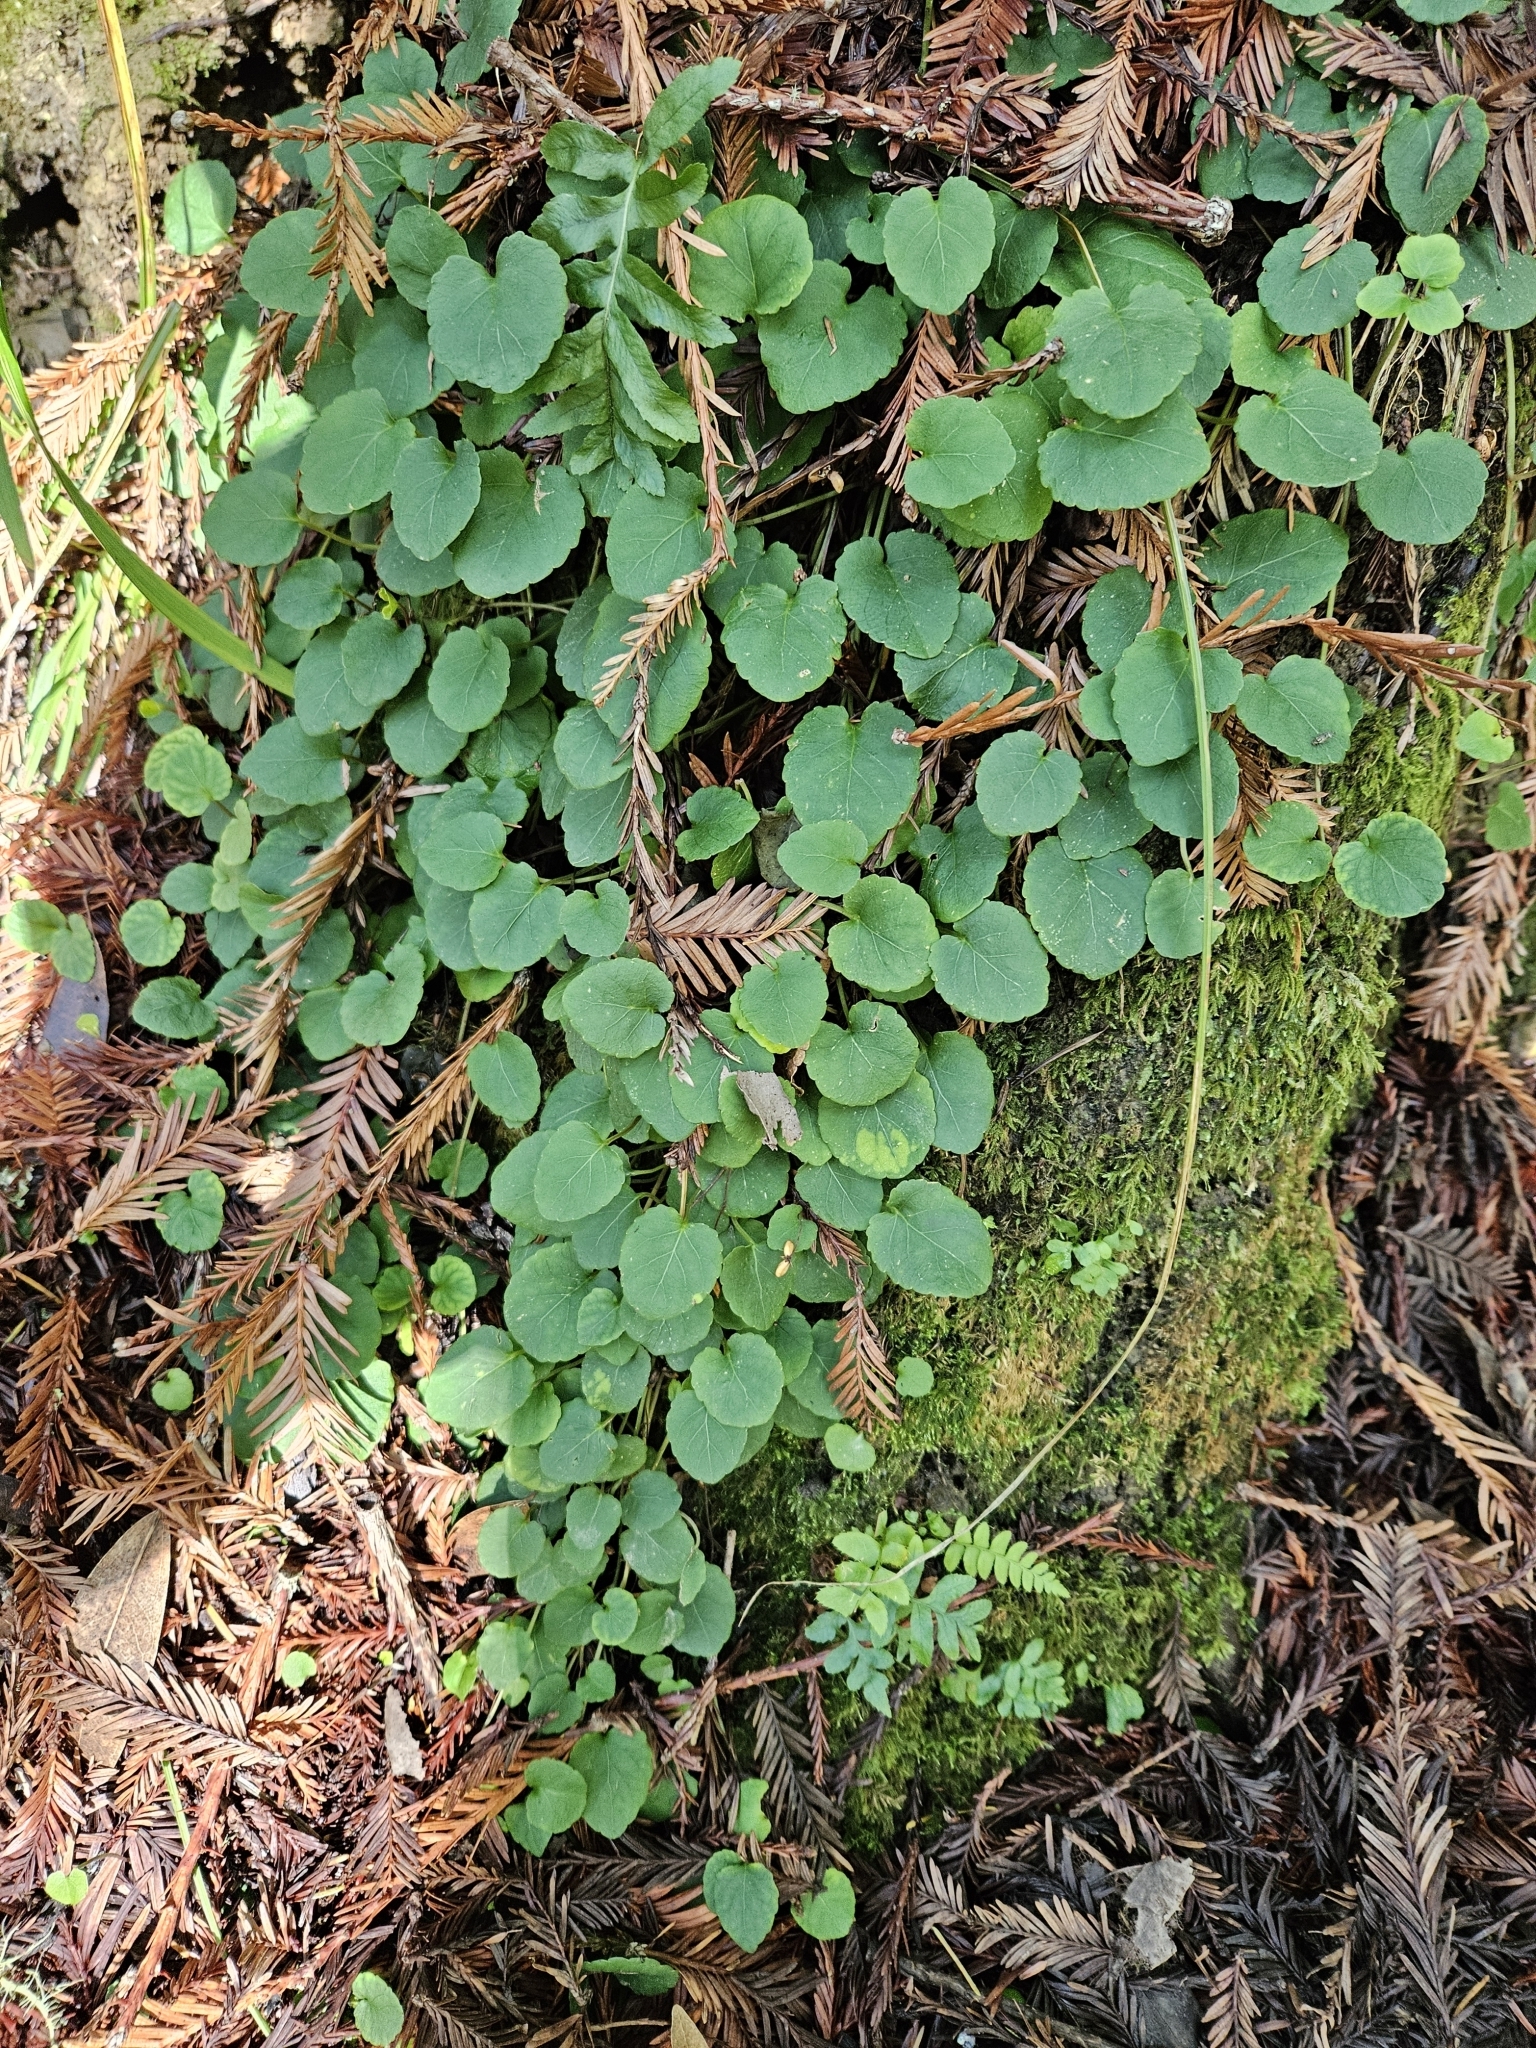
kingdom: Plantae
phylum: Tracheophyta
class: Magnoliopsida
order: Malpighiales
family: Violaceae
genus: Viola
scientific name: Viola sempervirens
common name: Evergreen violet
